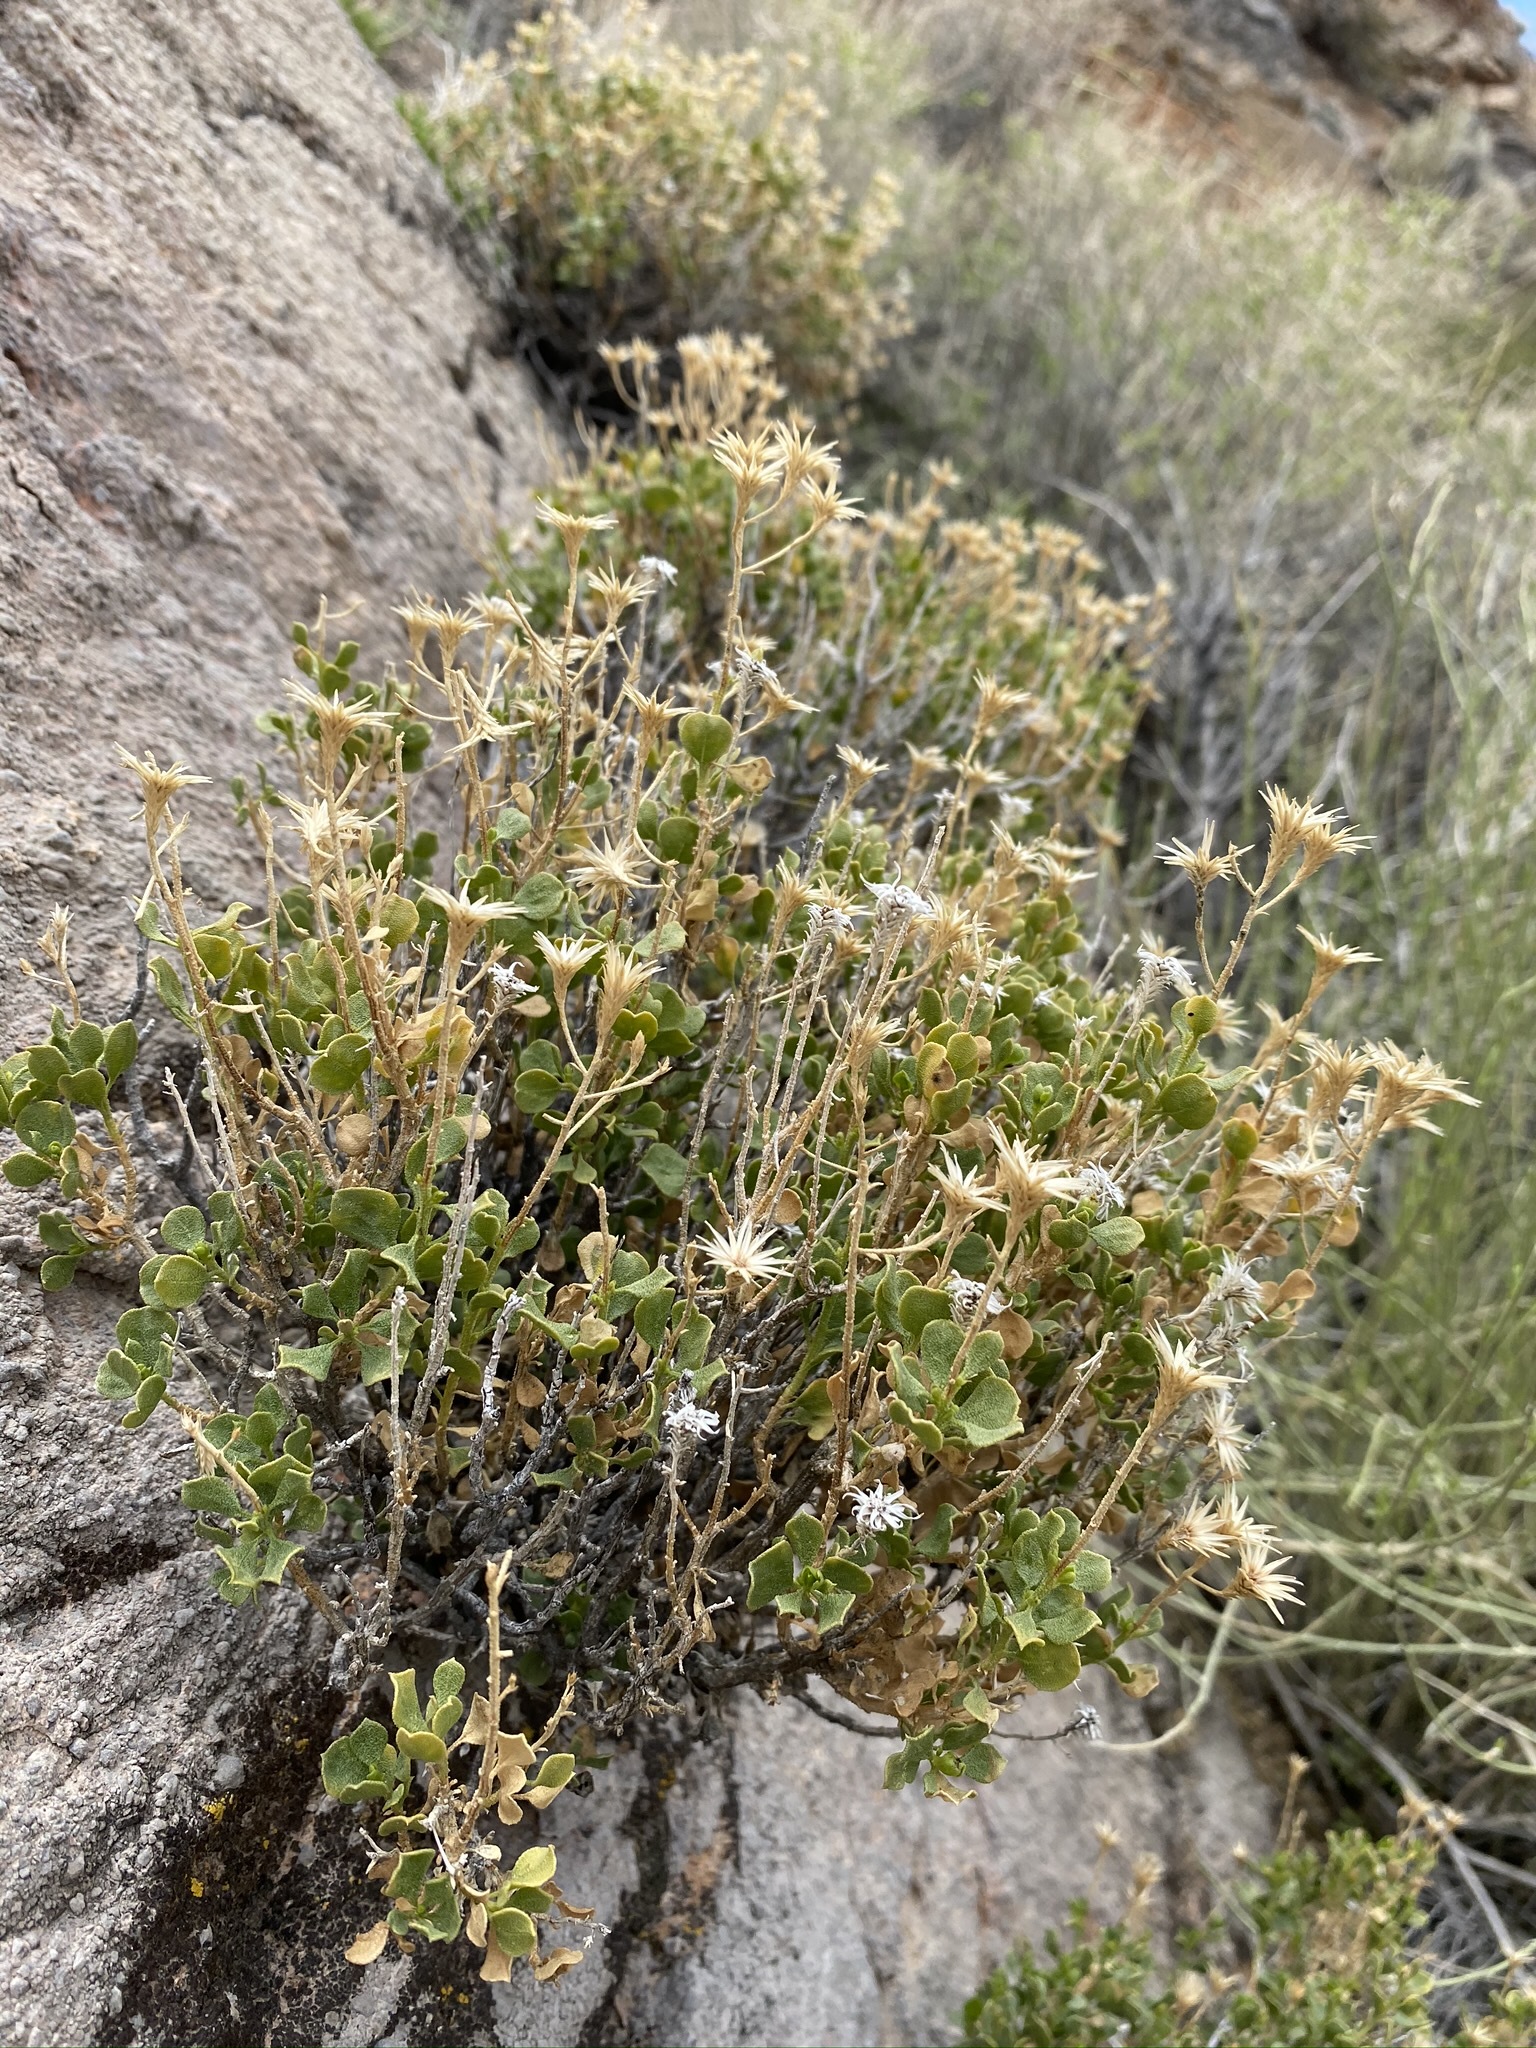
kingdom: Plantae
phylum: Tracheophyta
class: Magnoliopsida
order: Asterales
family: Asteraceae
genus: Ericameria
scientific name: Ericameria cuneata
